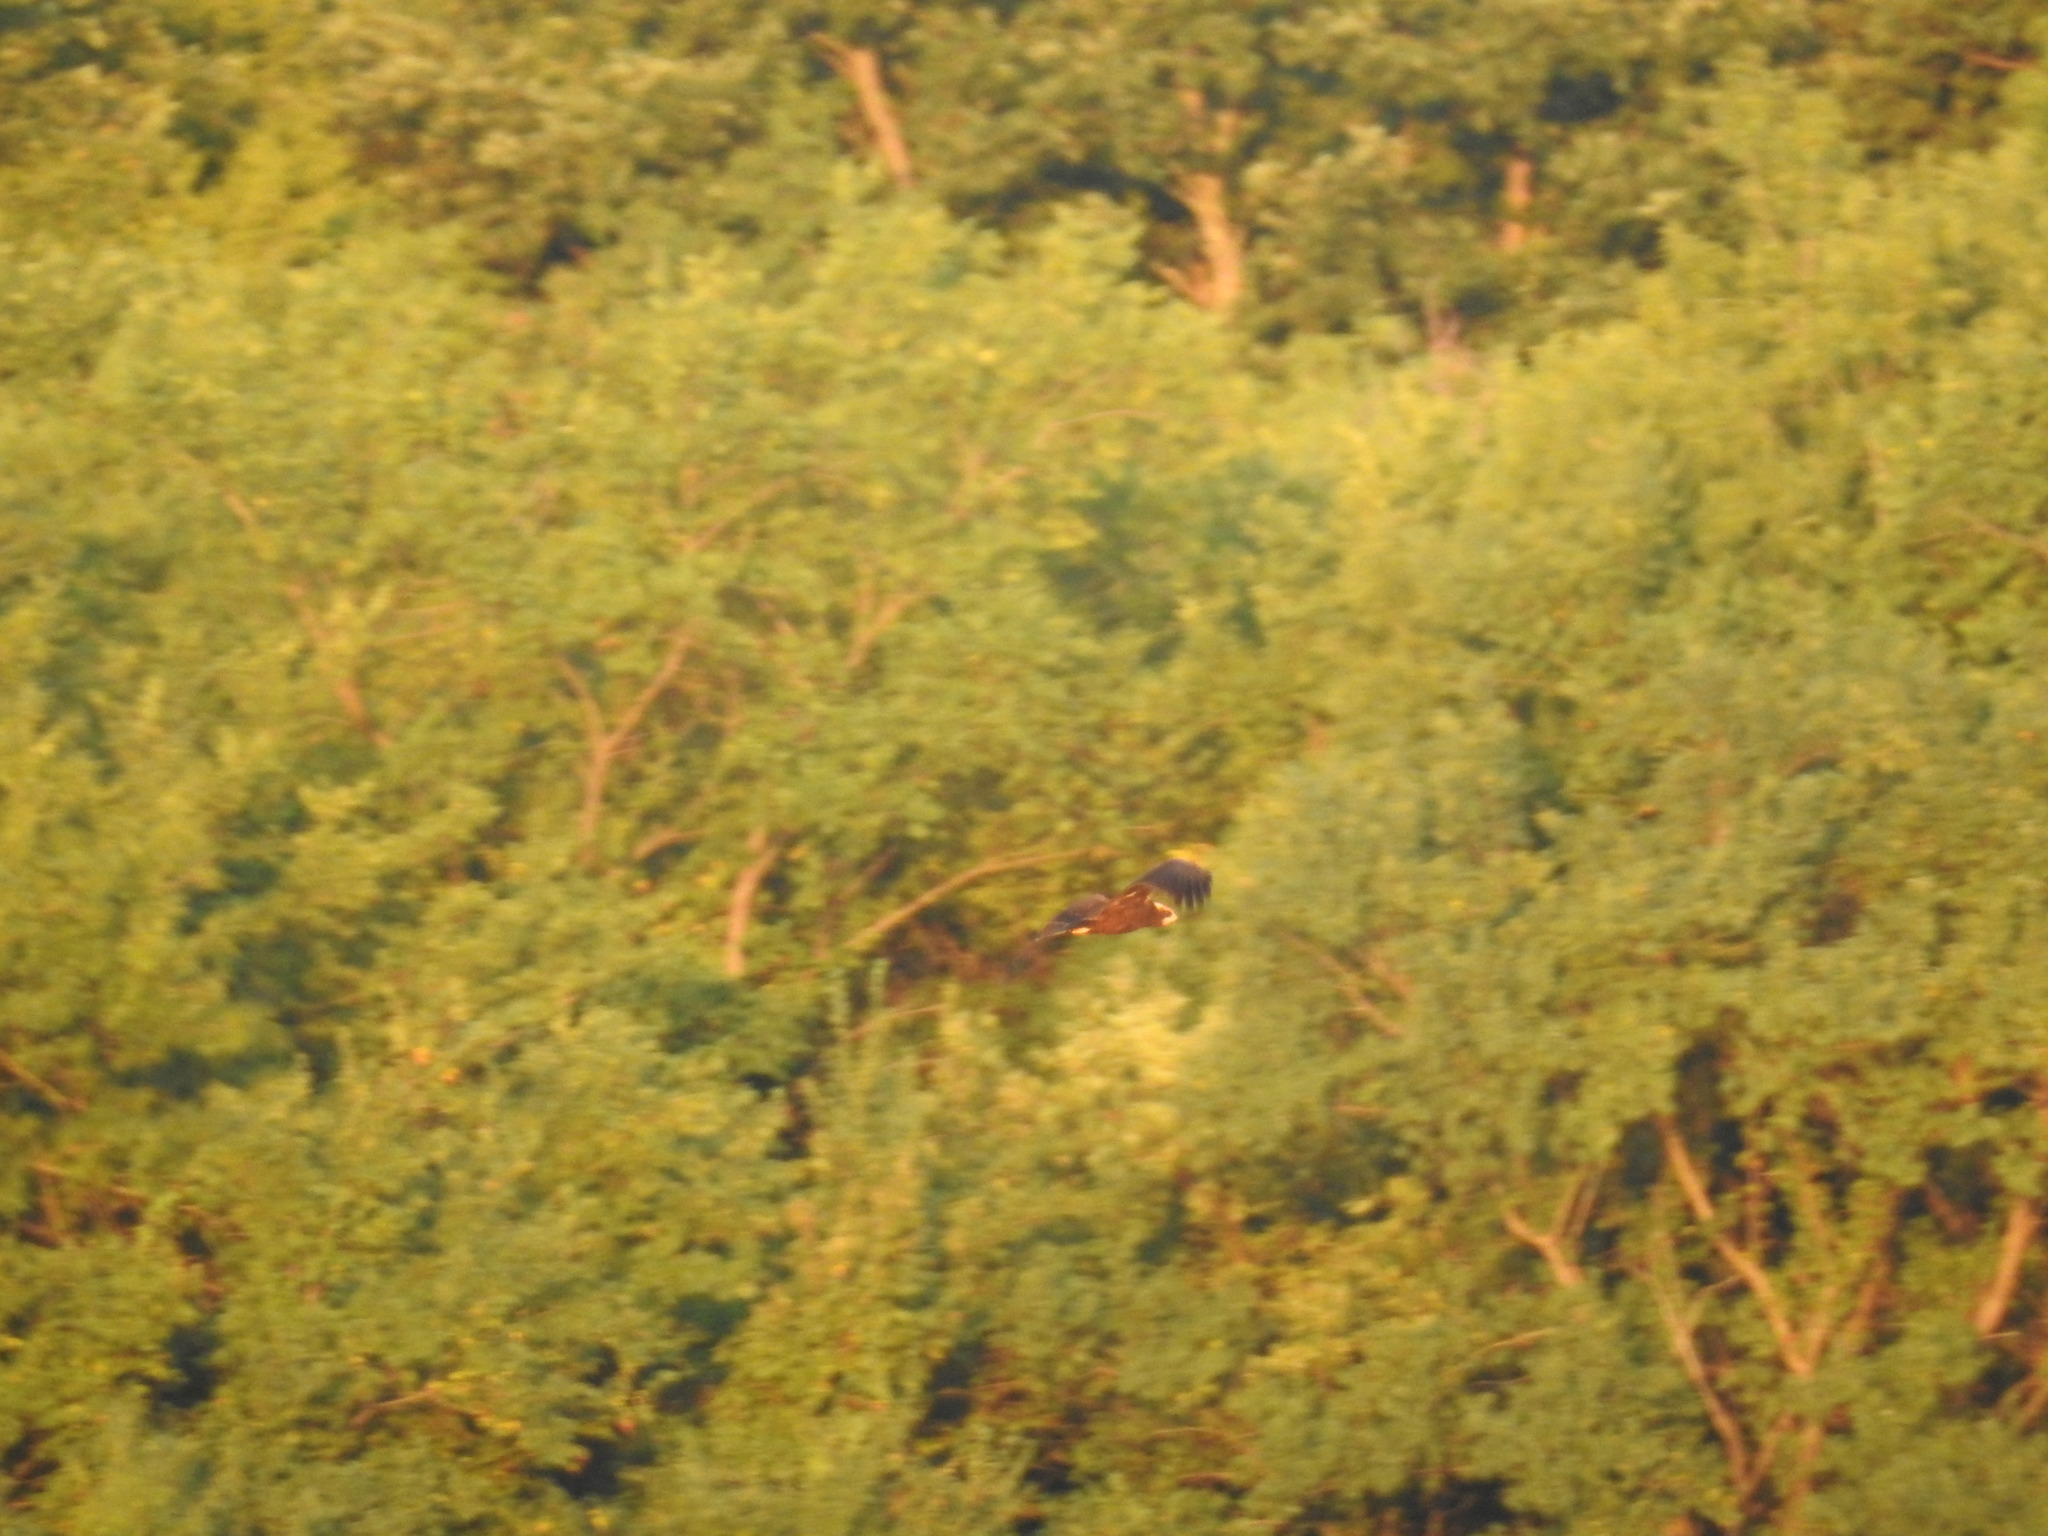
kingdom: Animalia
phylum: Chordata
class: Aves
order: Accipitriformes
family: Accipitridae
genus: Circus
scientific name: Circus aeruginosus
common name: Western marsh harrier
